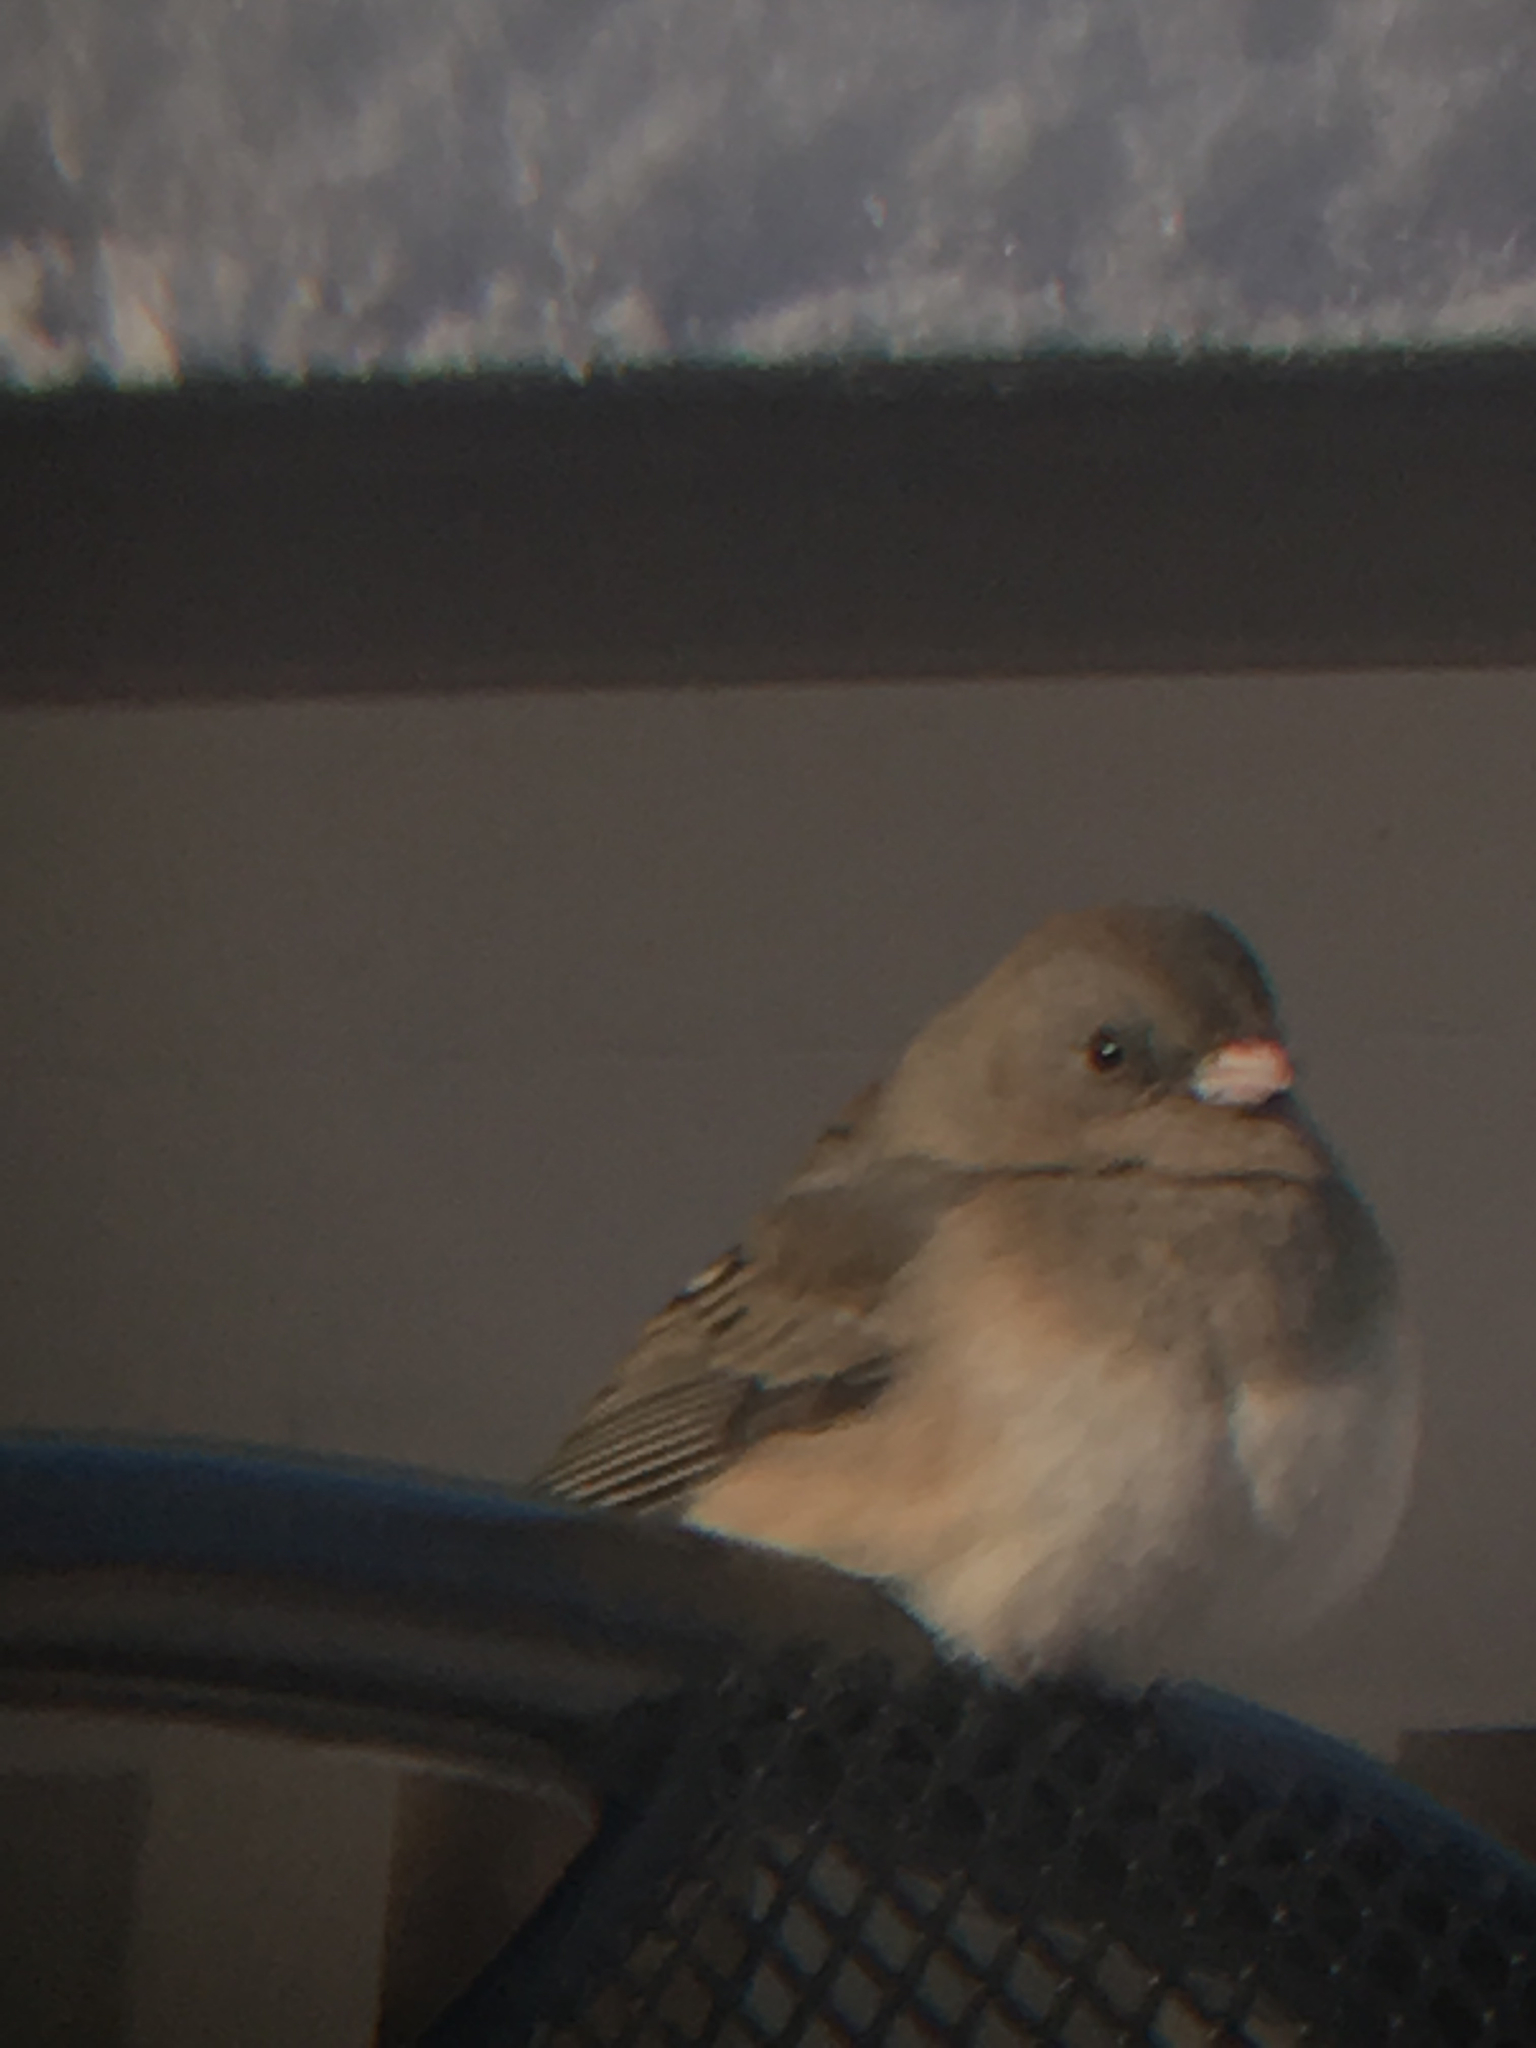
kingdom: Animalia
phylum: Chordata
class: Aves
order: Passeriformes
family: Passerellidae
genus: Junco
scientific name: Junco hyemalis
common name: Dark-eyed junco
